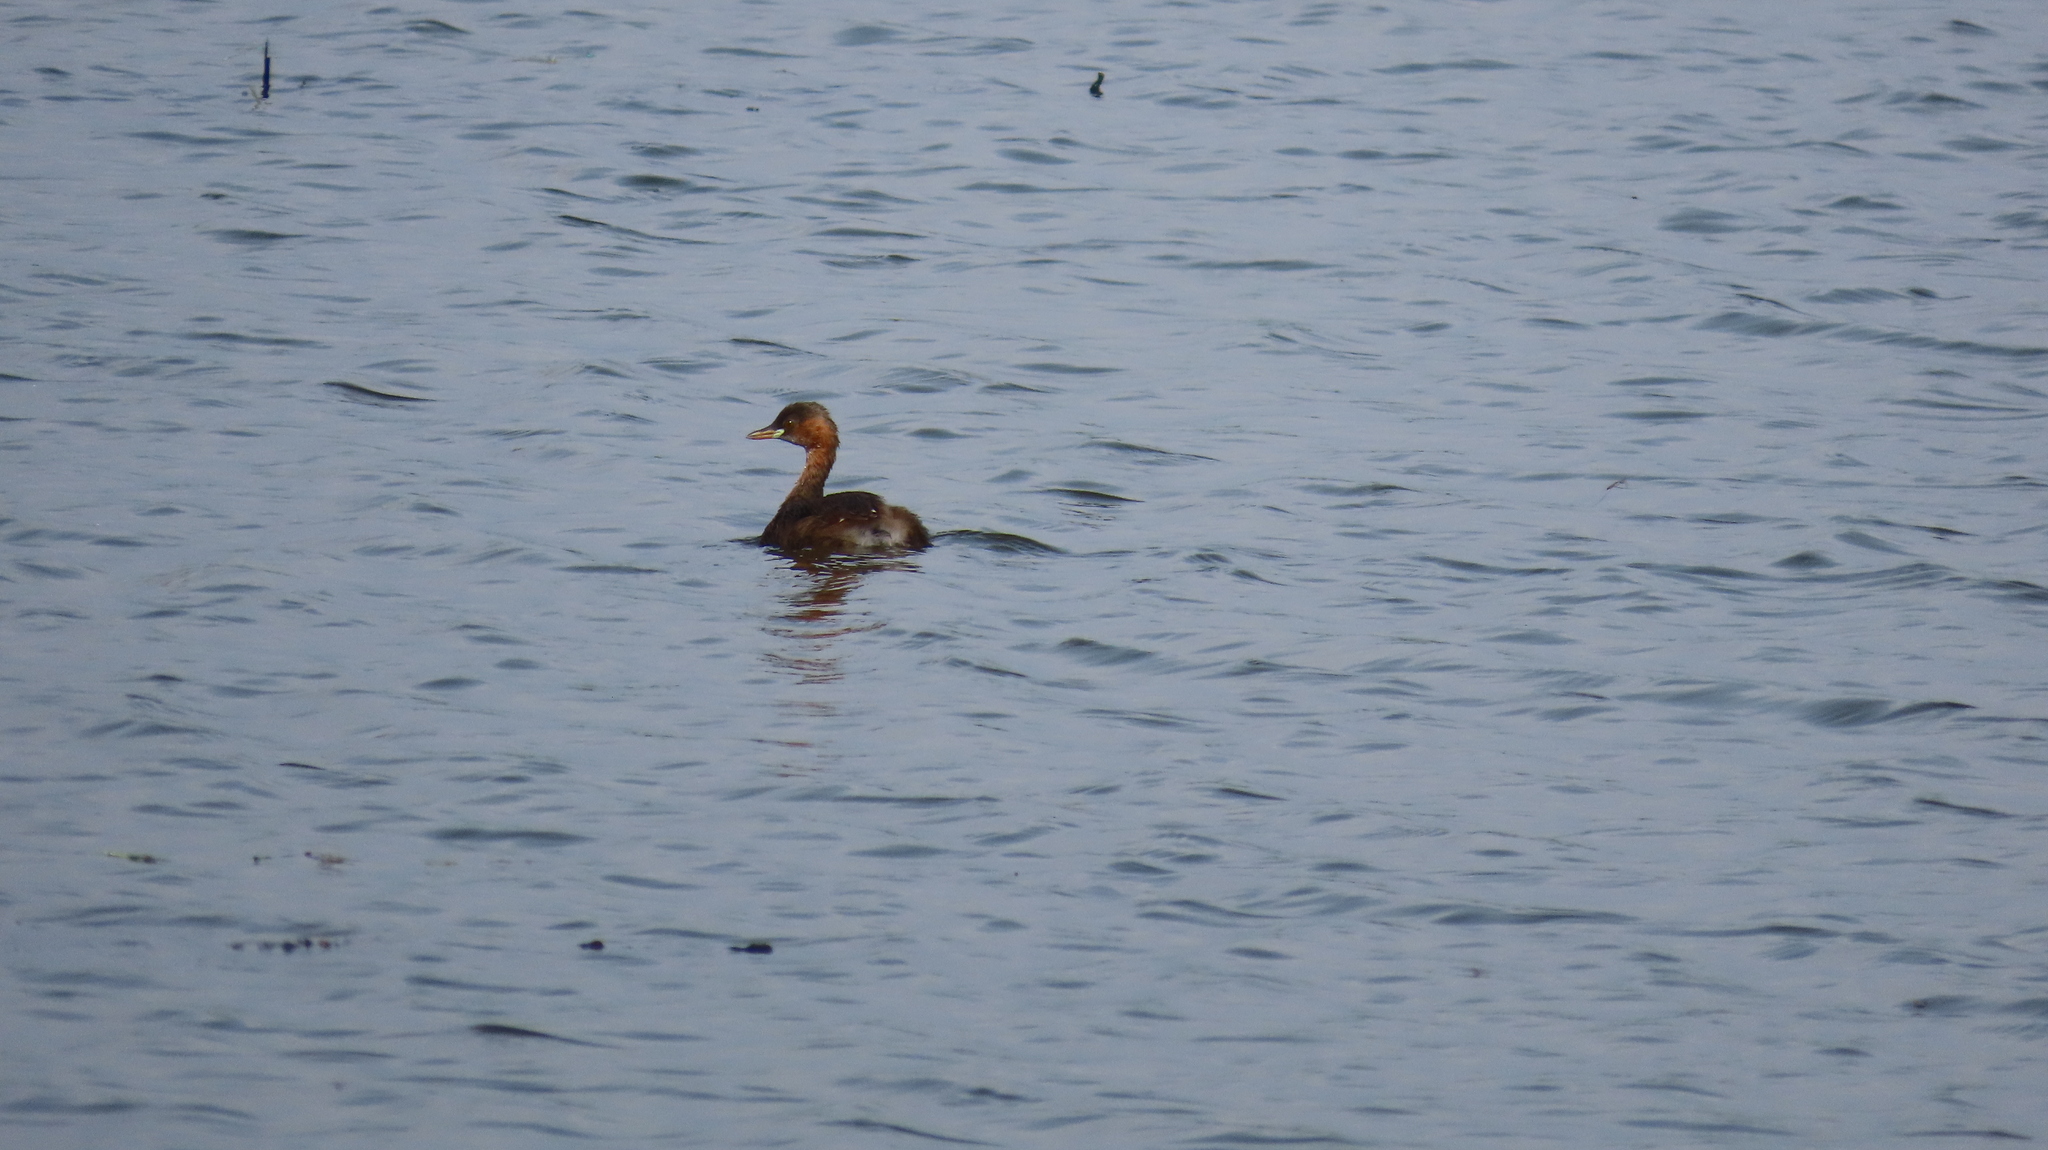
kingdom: Animalia
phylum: Chordata
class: Aves
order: Podicipediformes
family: Podicipedidae
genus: Tachybaptus
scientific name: Tachybaptus ruficollis
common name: Little grebe
